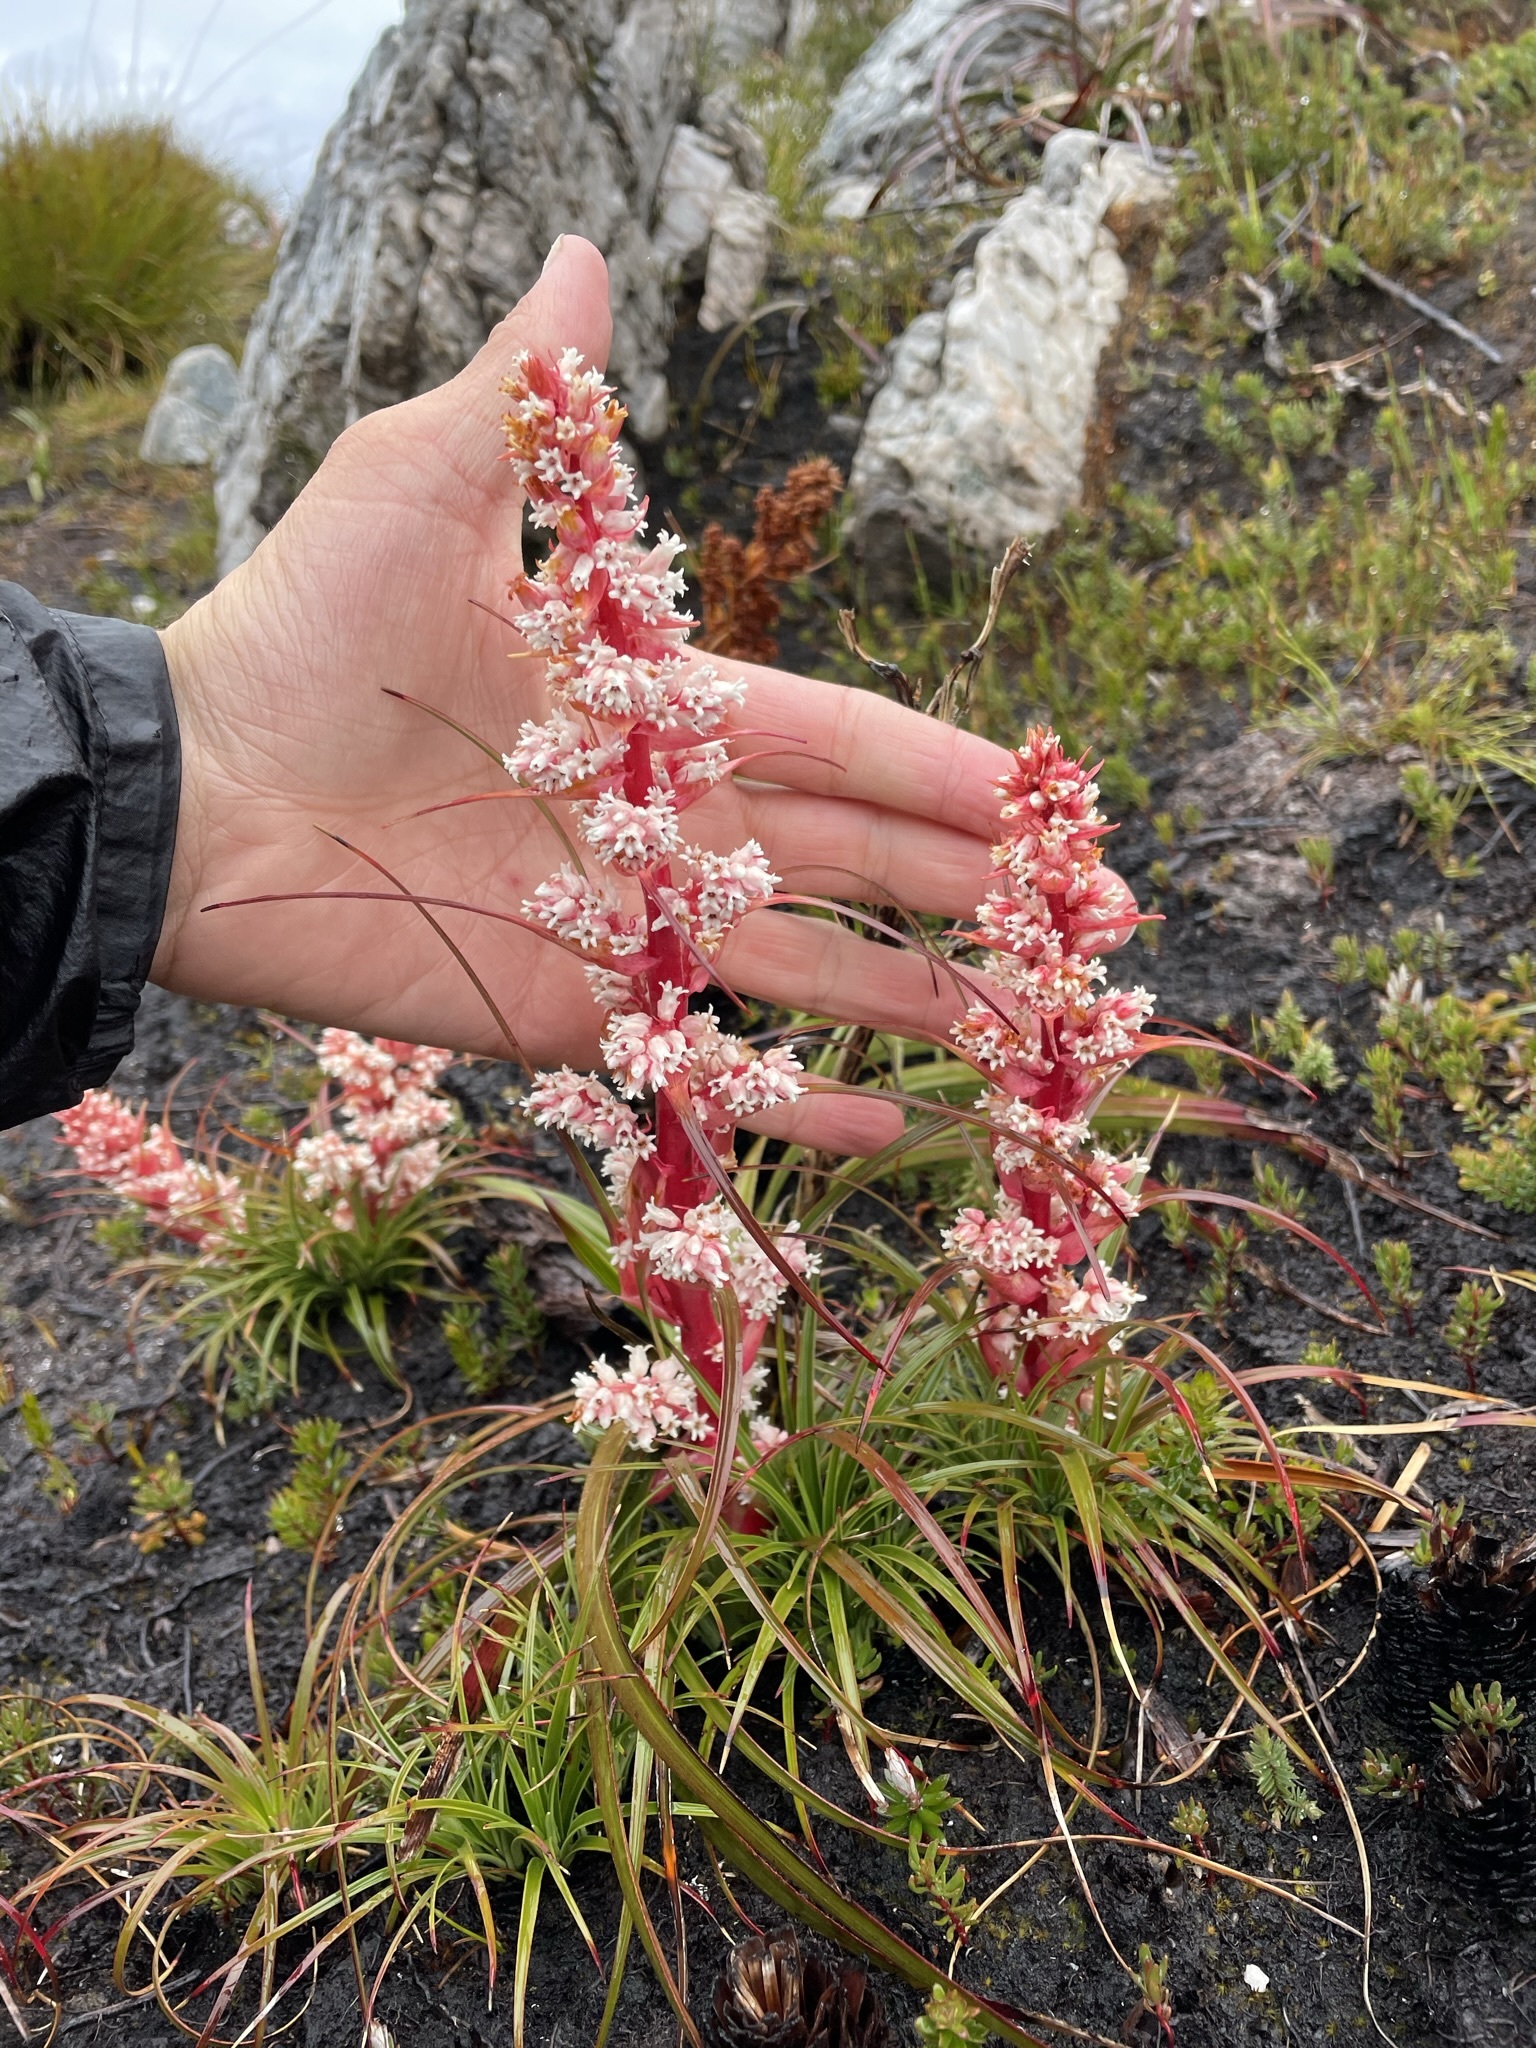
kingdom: Plantae
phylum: Tracheophyta
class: Magnoliopsida
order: Ericales
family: Ericaceae
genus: Dracophyllum
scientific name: Dracophyllum milliganii
